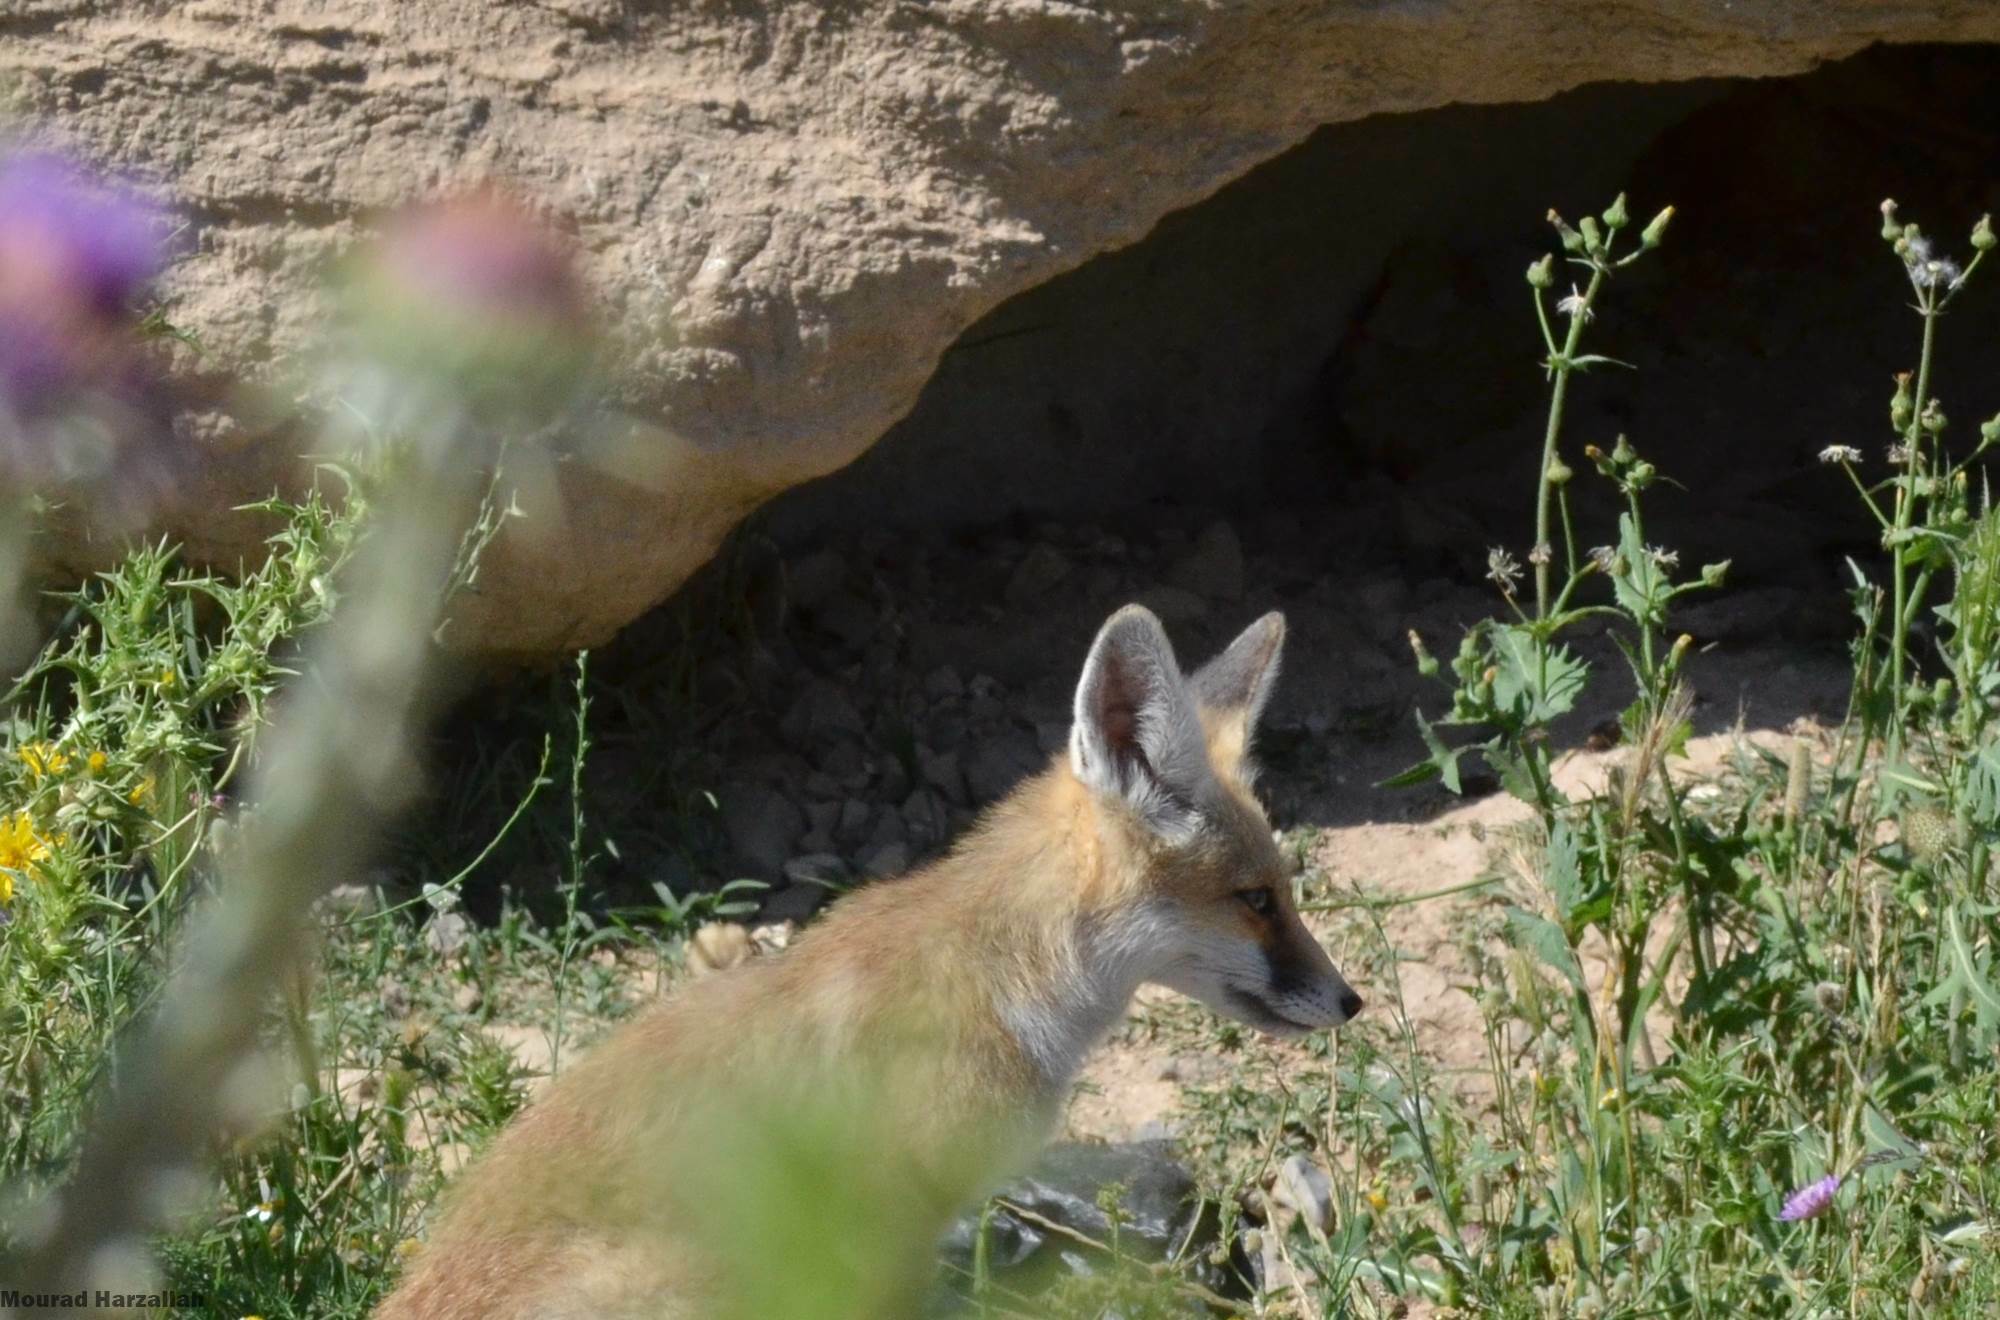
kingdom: Animalia
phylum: Chordata
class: Mammalia
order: Carnivora
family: Canidae
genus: Vulpes
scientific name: Vulpes vulpes
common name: Red fox
